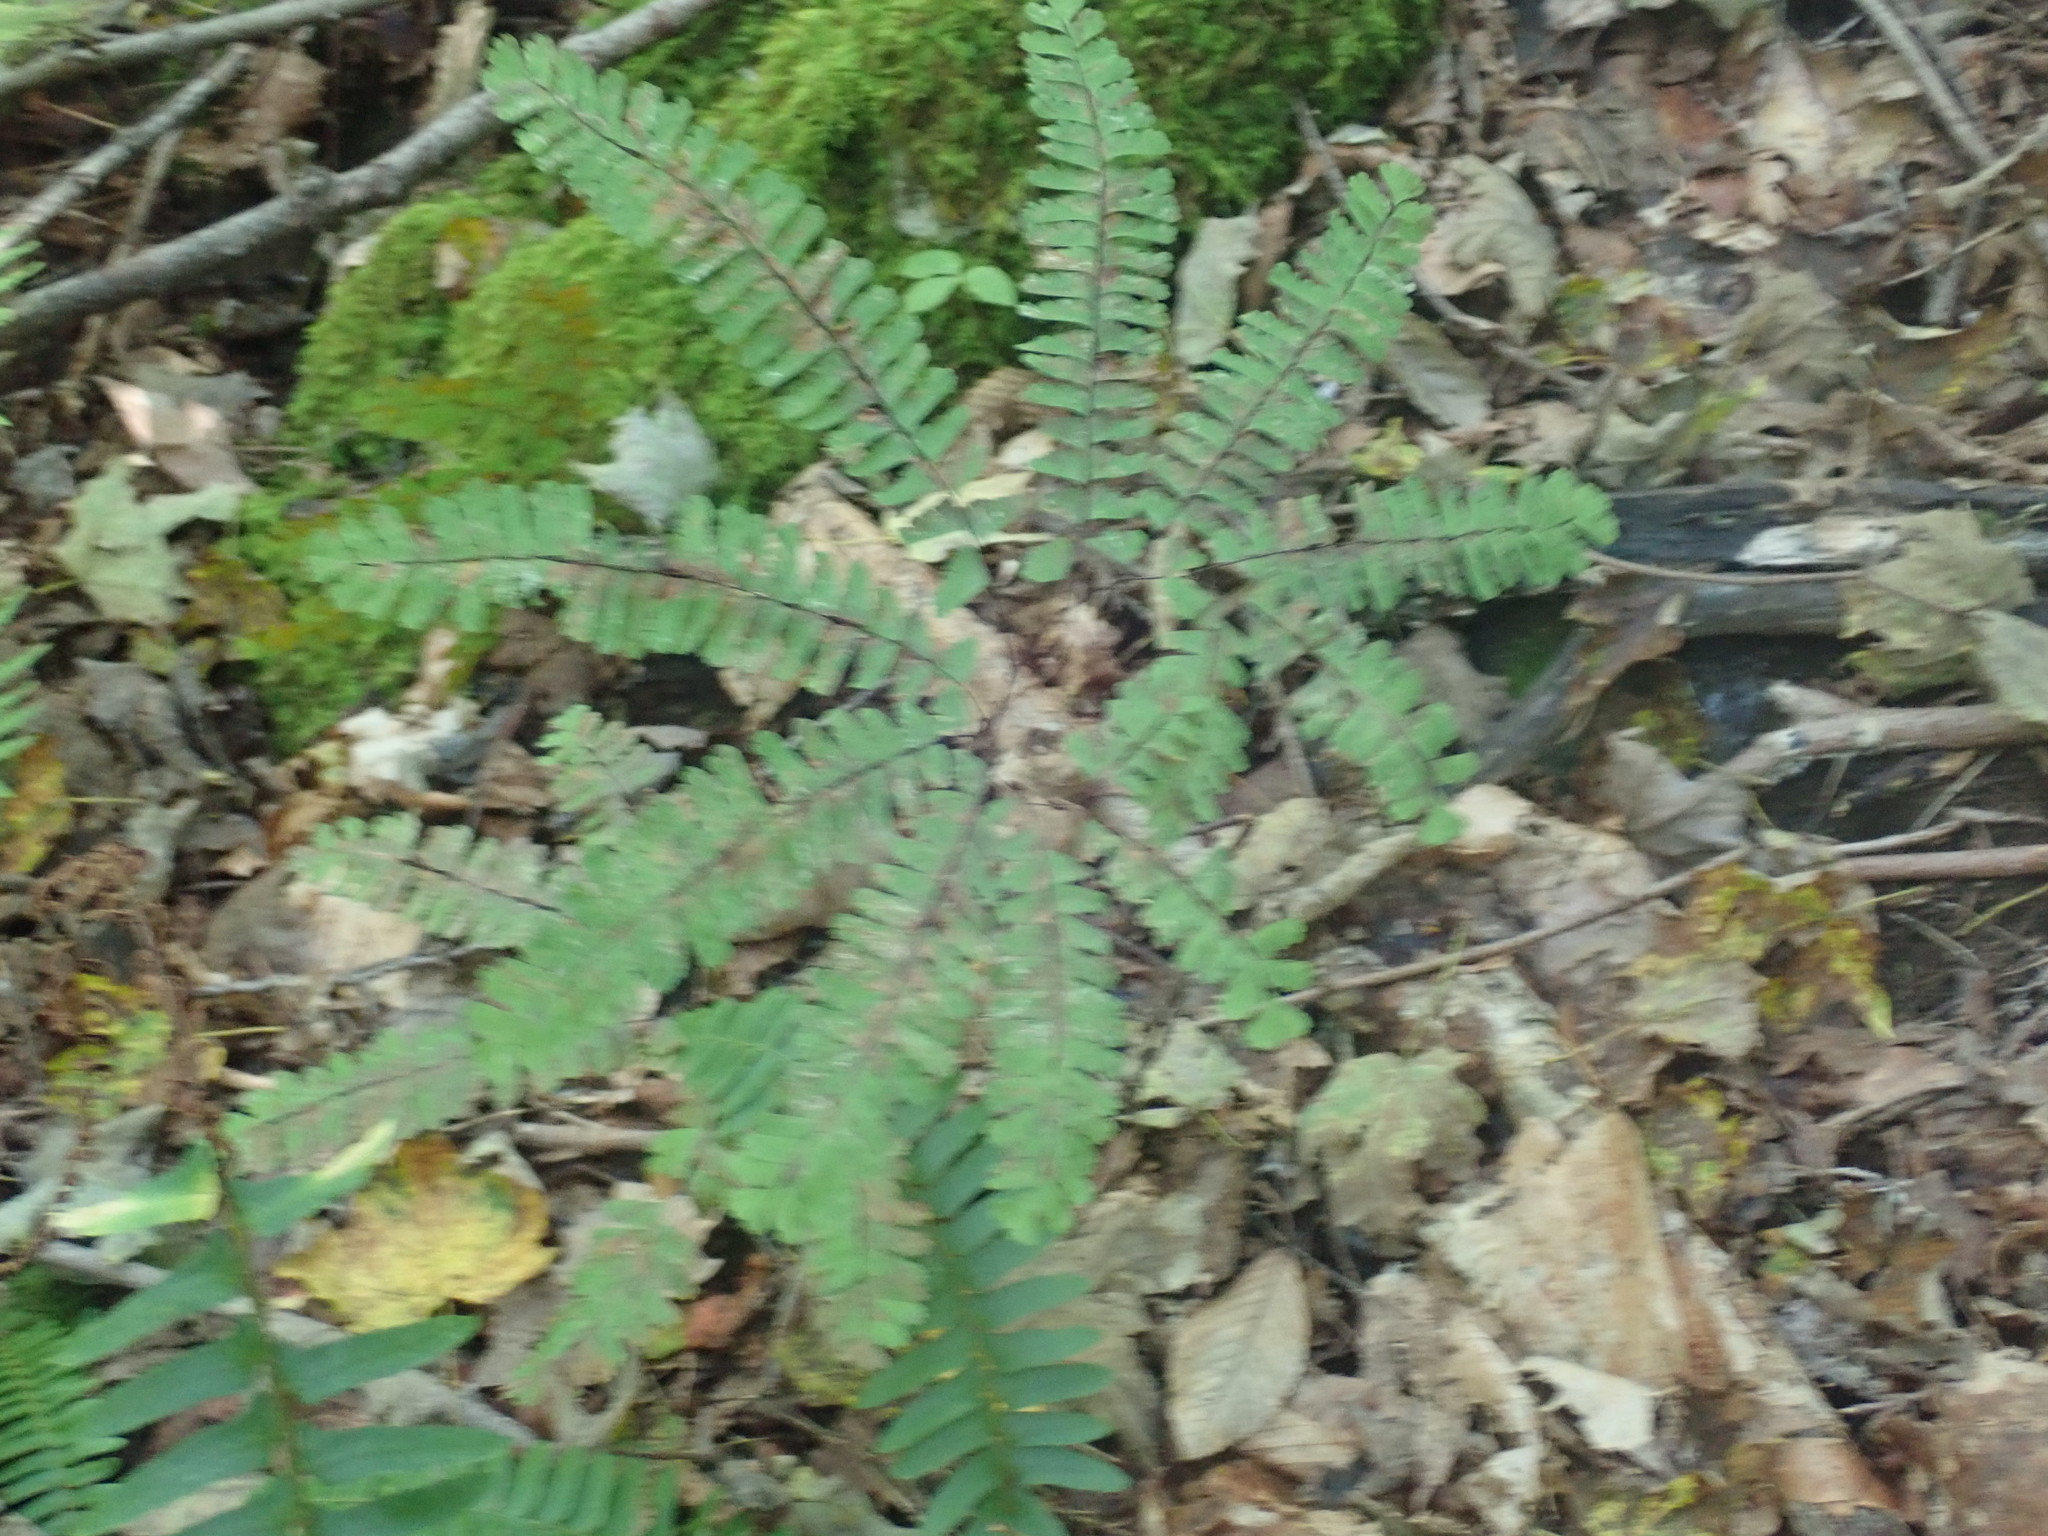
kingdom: Plantae
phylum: Tracheophyta
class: Polypodiopsida
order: Polypodiales
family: Pteridaceae
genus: Adiantum
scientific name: Adiantum pedatum
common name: Five-finger fern
